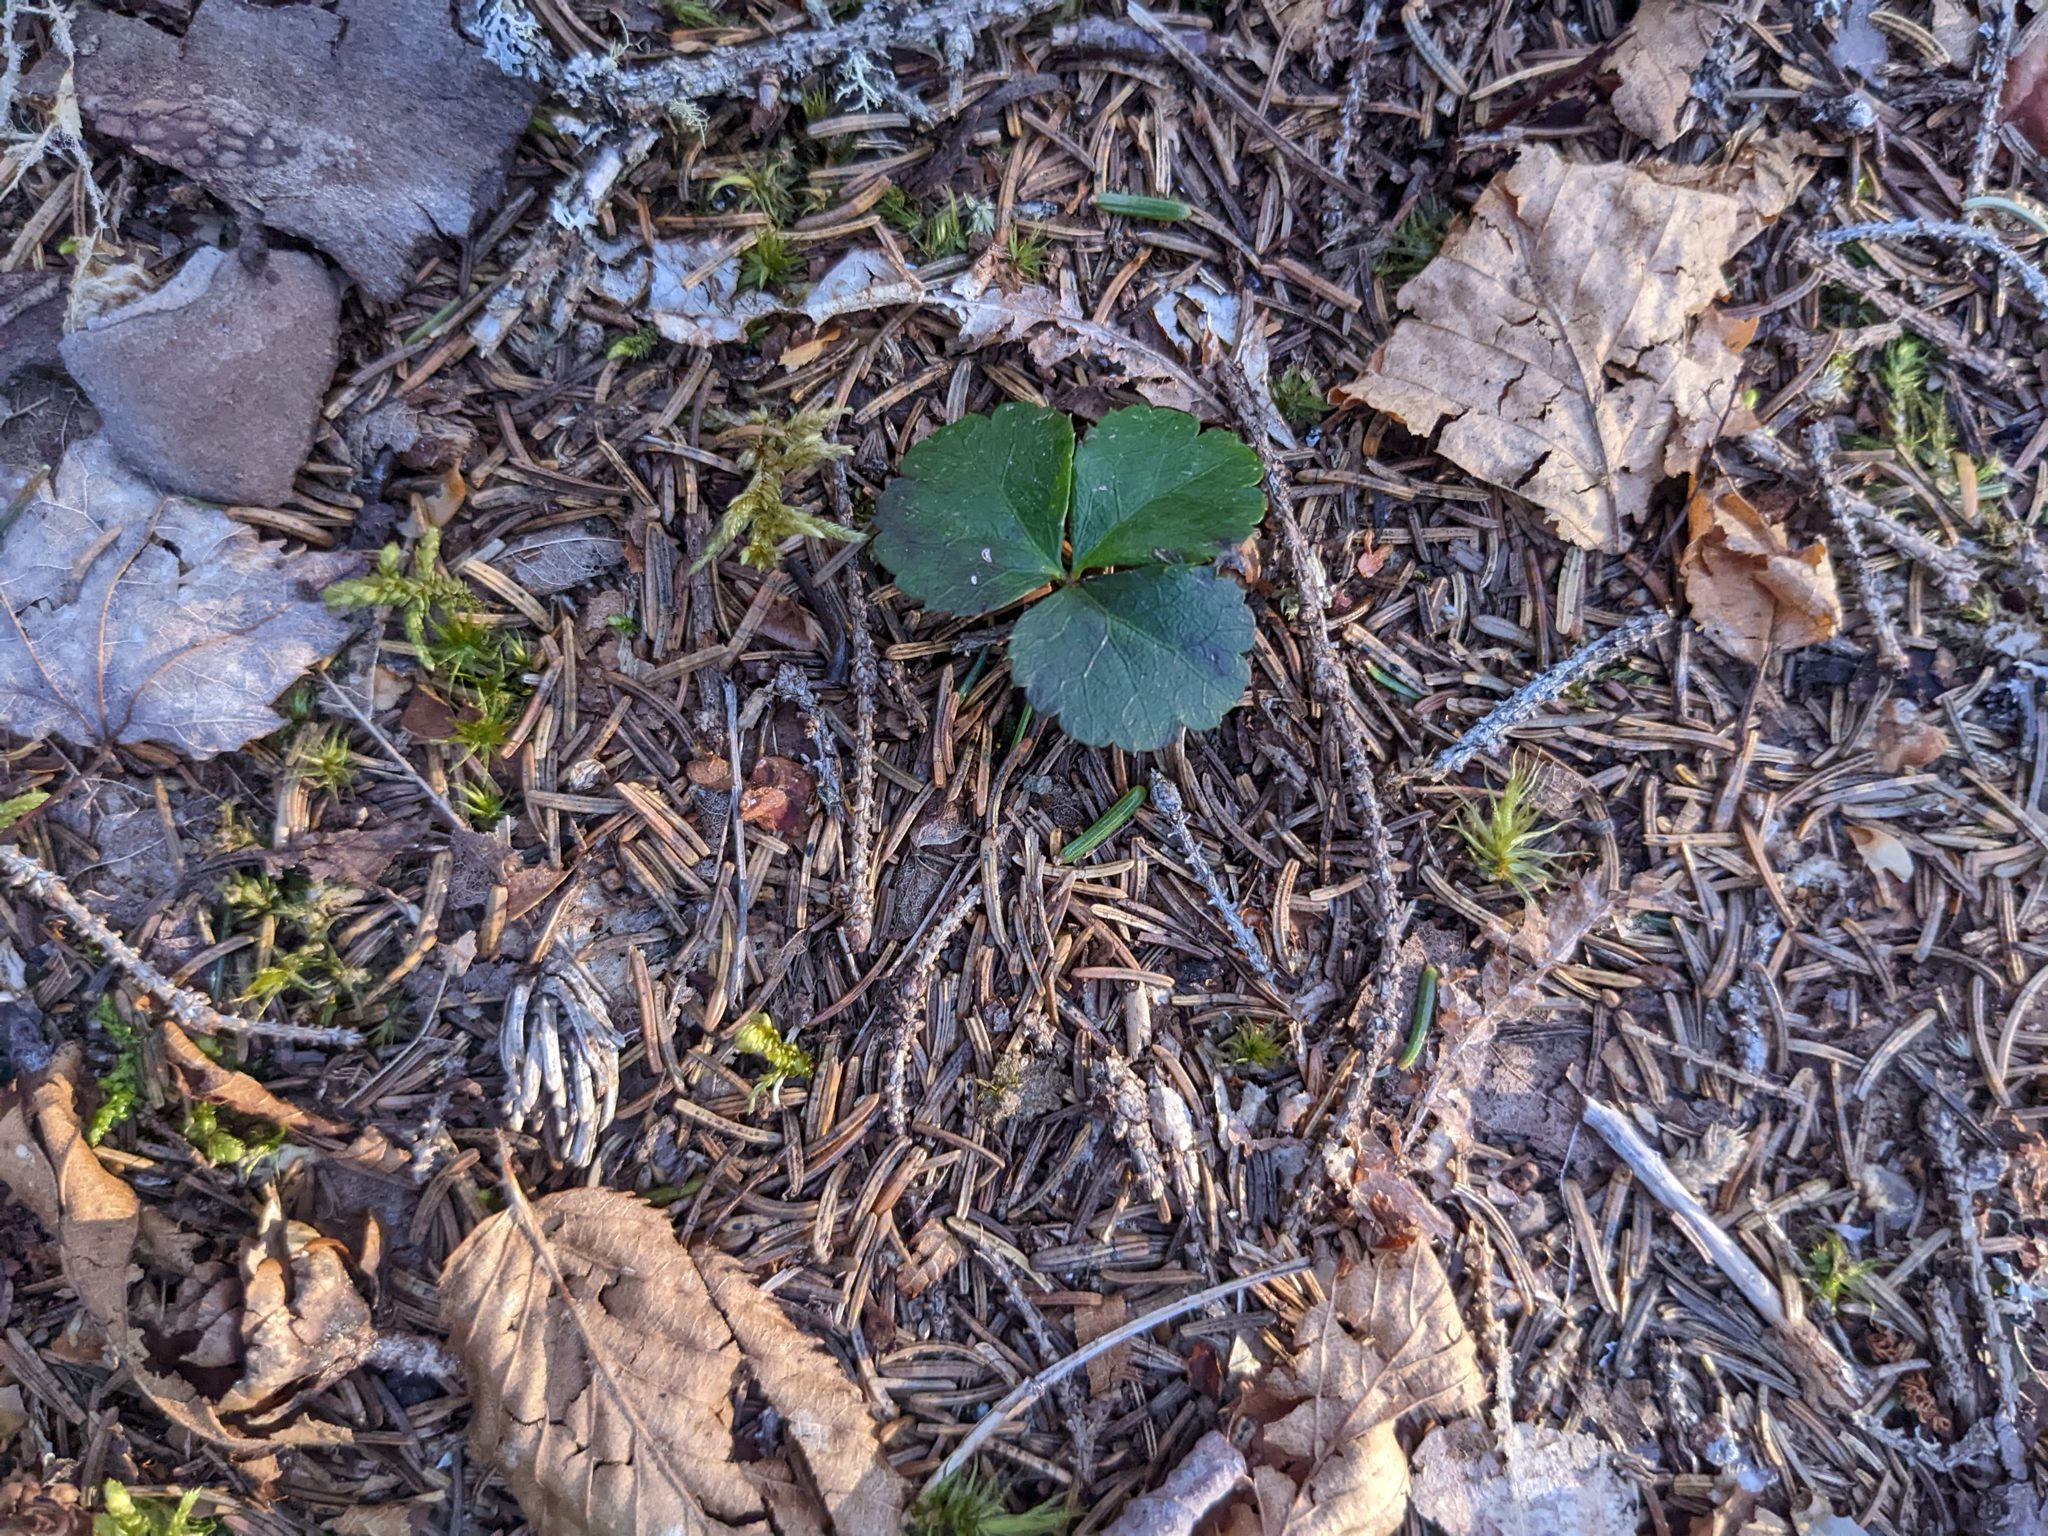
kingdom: Plantae
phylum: Tracheophyta
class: Magnoliopsida
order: Ranunculales
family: Ranunculaceae
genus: Coptis
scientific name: Coptis trifolia
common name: Canker-root
